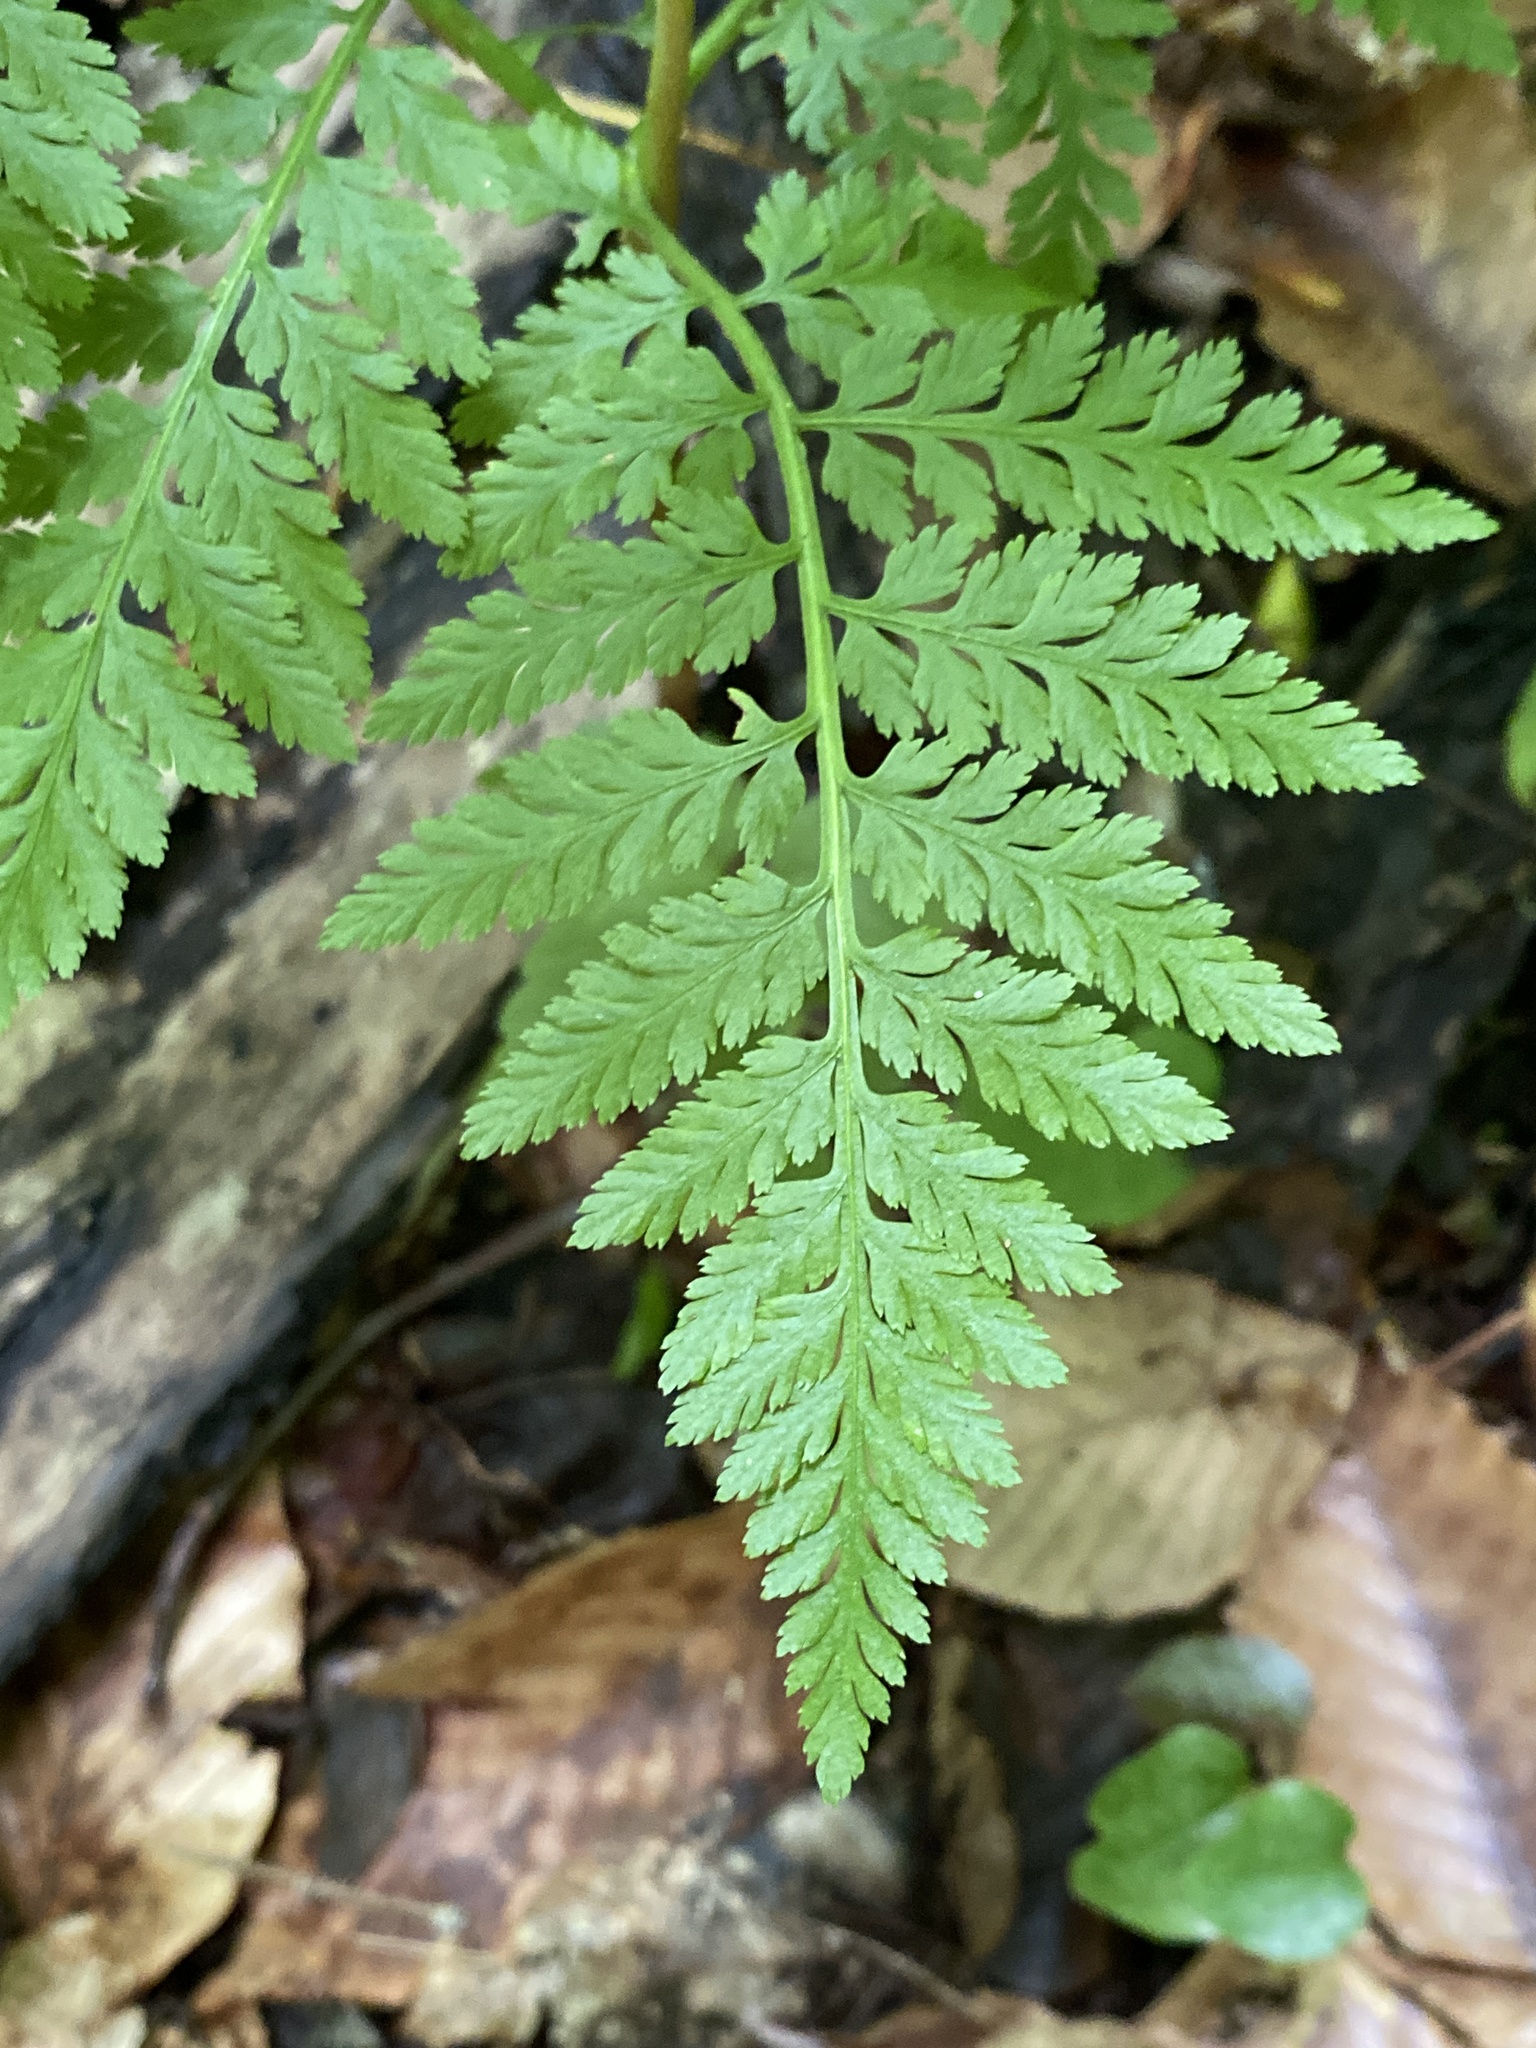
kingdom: Plantae
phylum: Tracheophyta
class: Polypodiopsida
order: Ophioglossales
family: Ophioglossaceae
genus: Botrypus
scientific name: Botrypus virginianus
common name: Common grapefern
